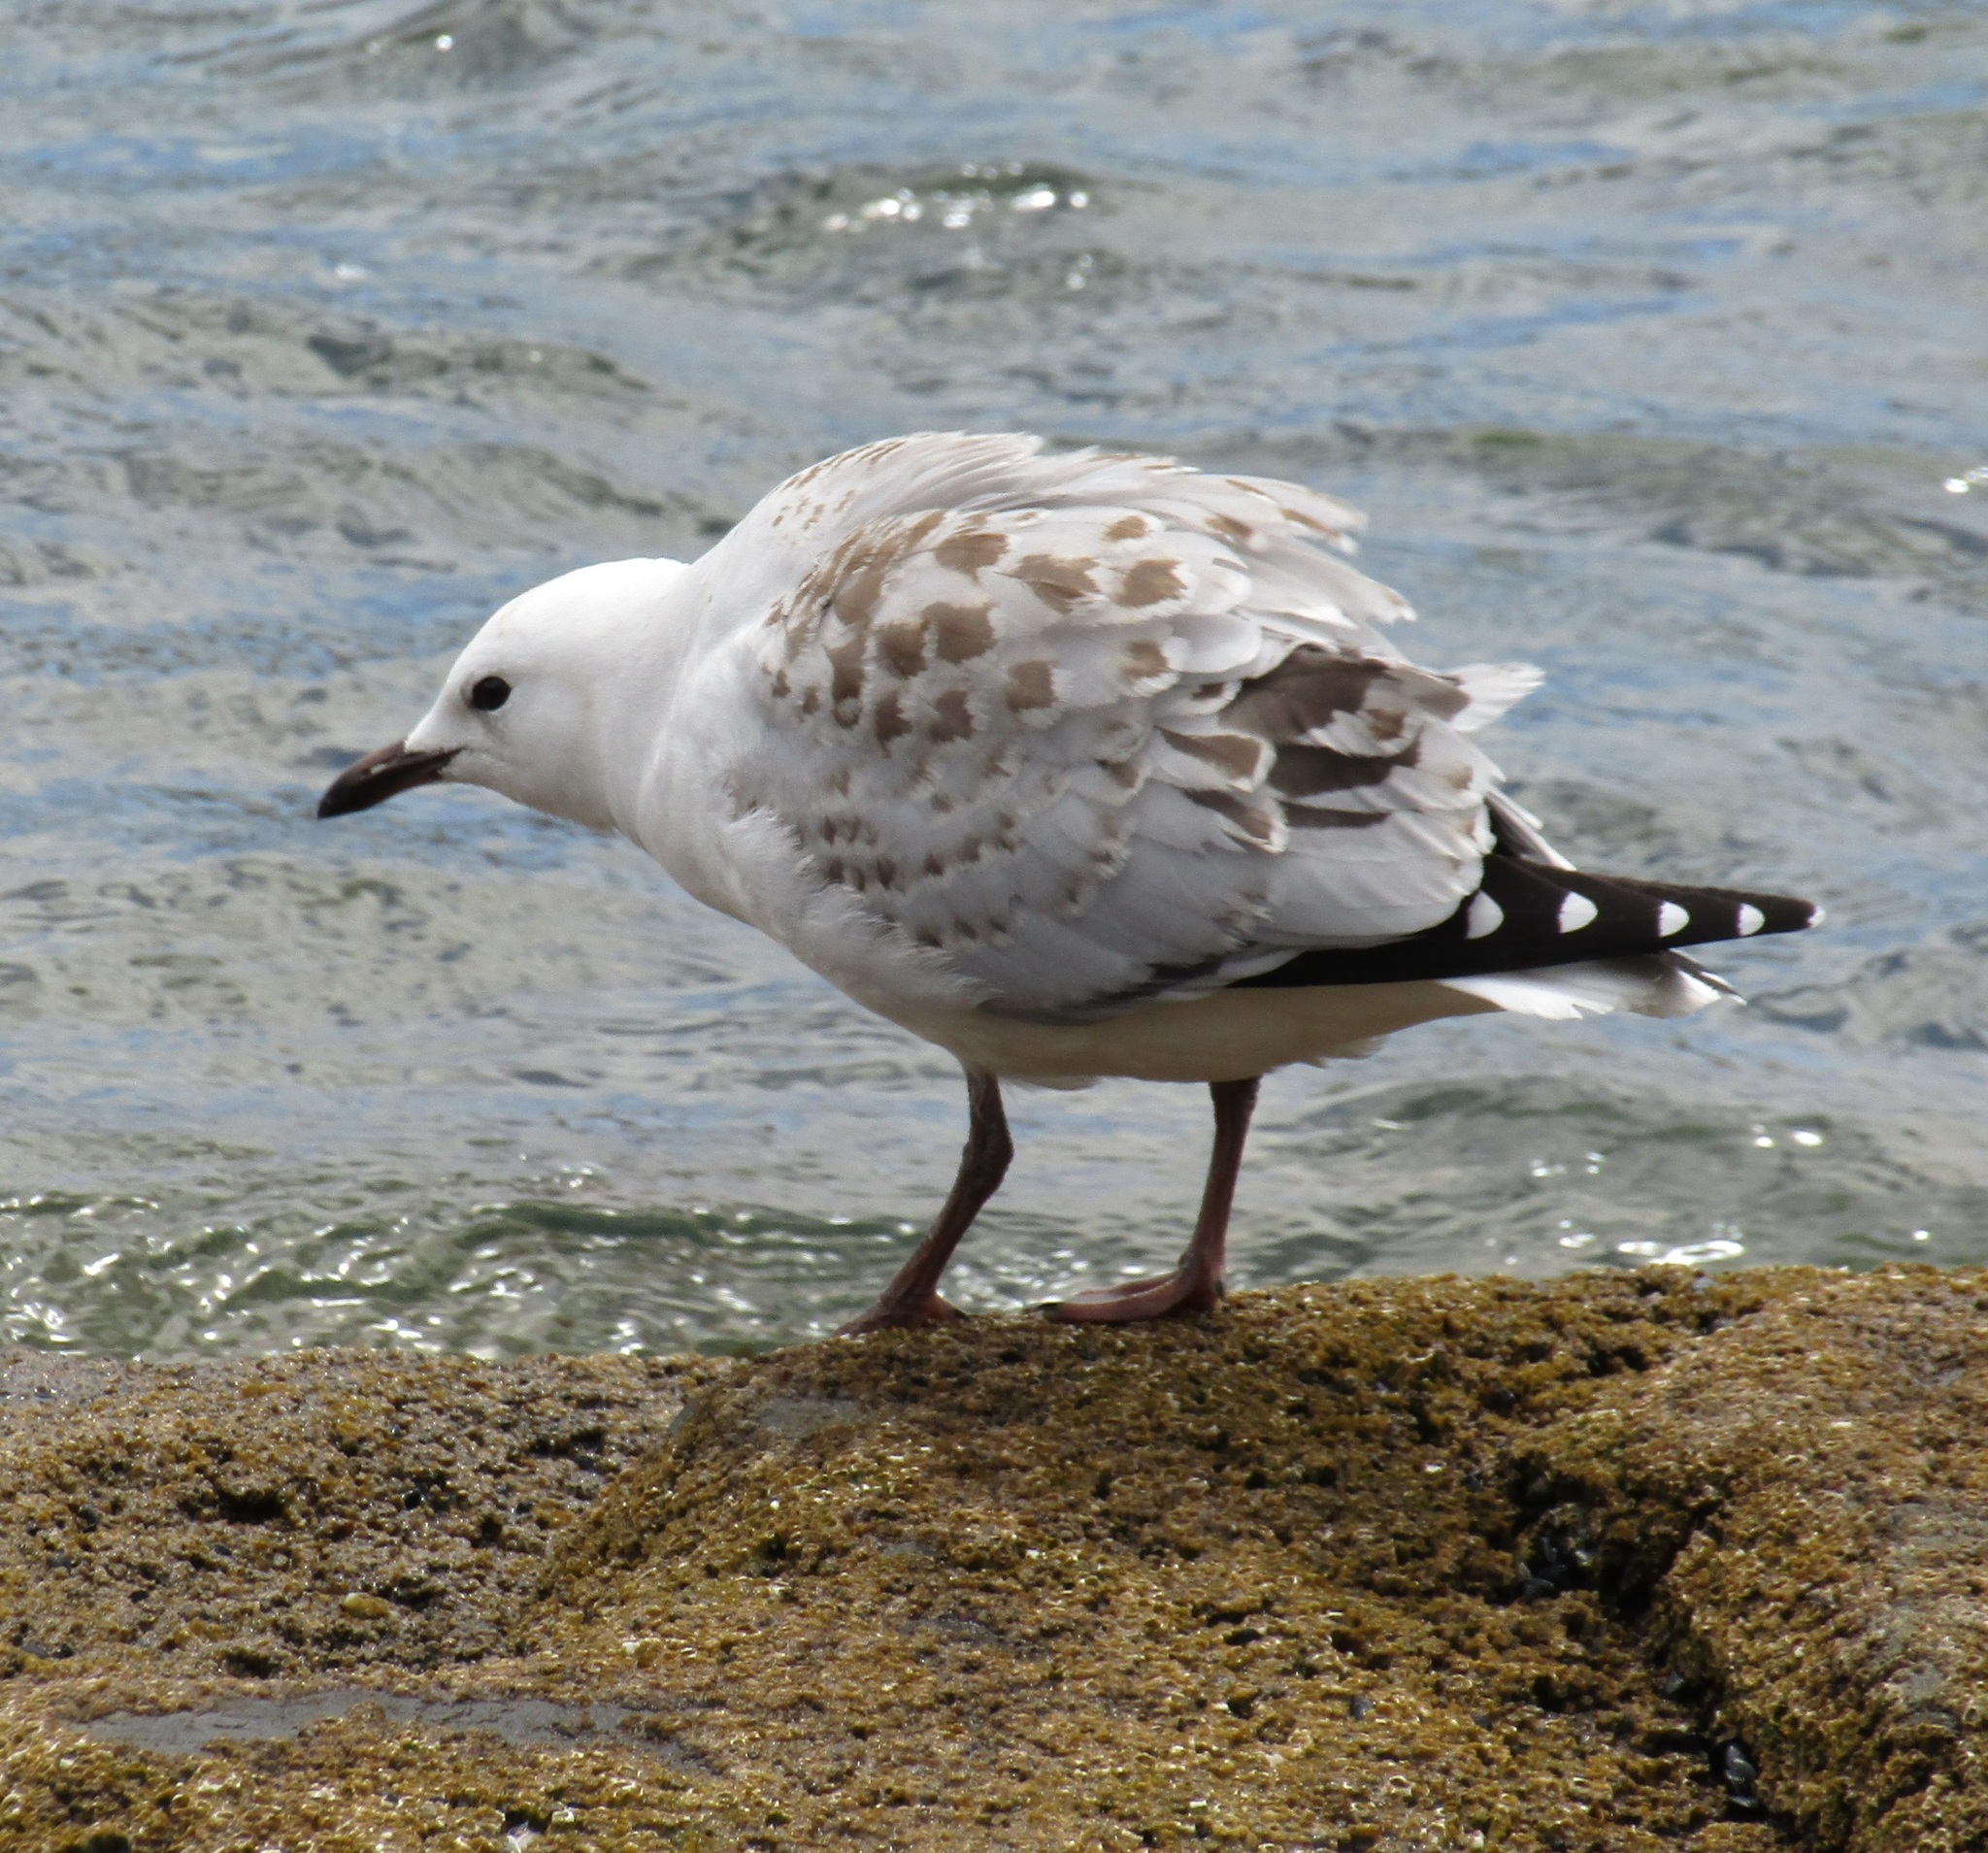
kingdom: Animalia
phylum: Chordata
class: Aves
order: Charadriiformes
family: Laridae
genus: Chroicocephalus
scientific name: Chroicocephalus novaehollandiae
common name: Silver gull
